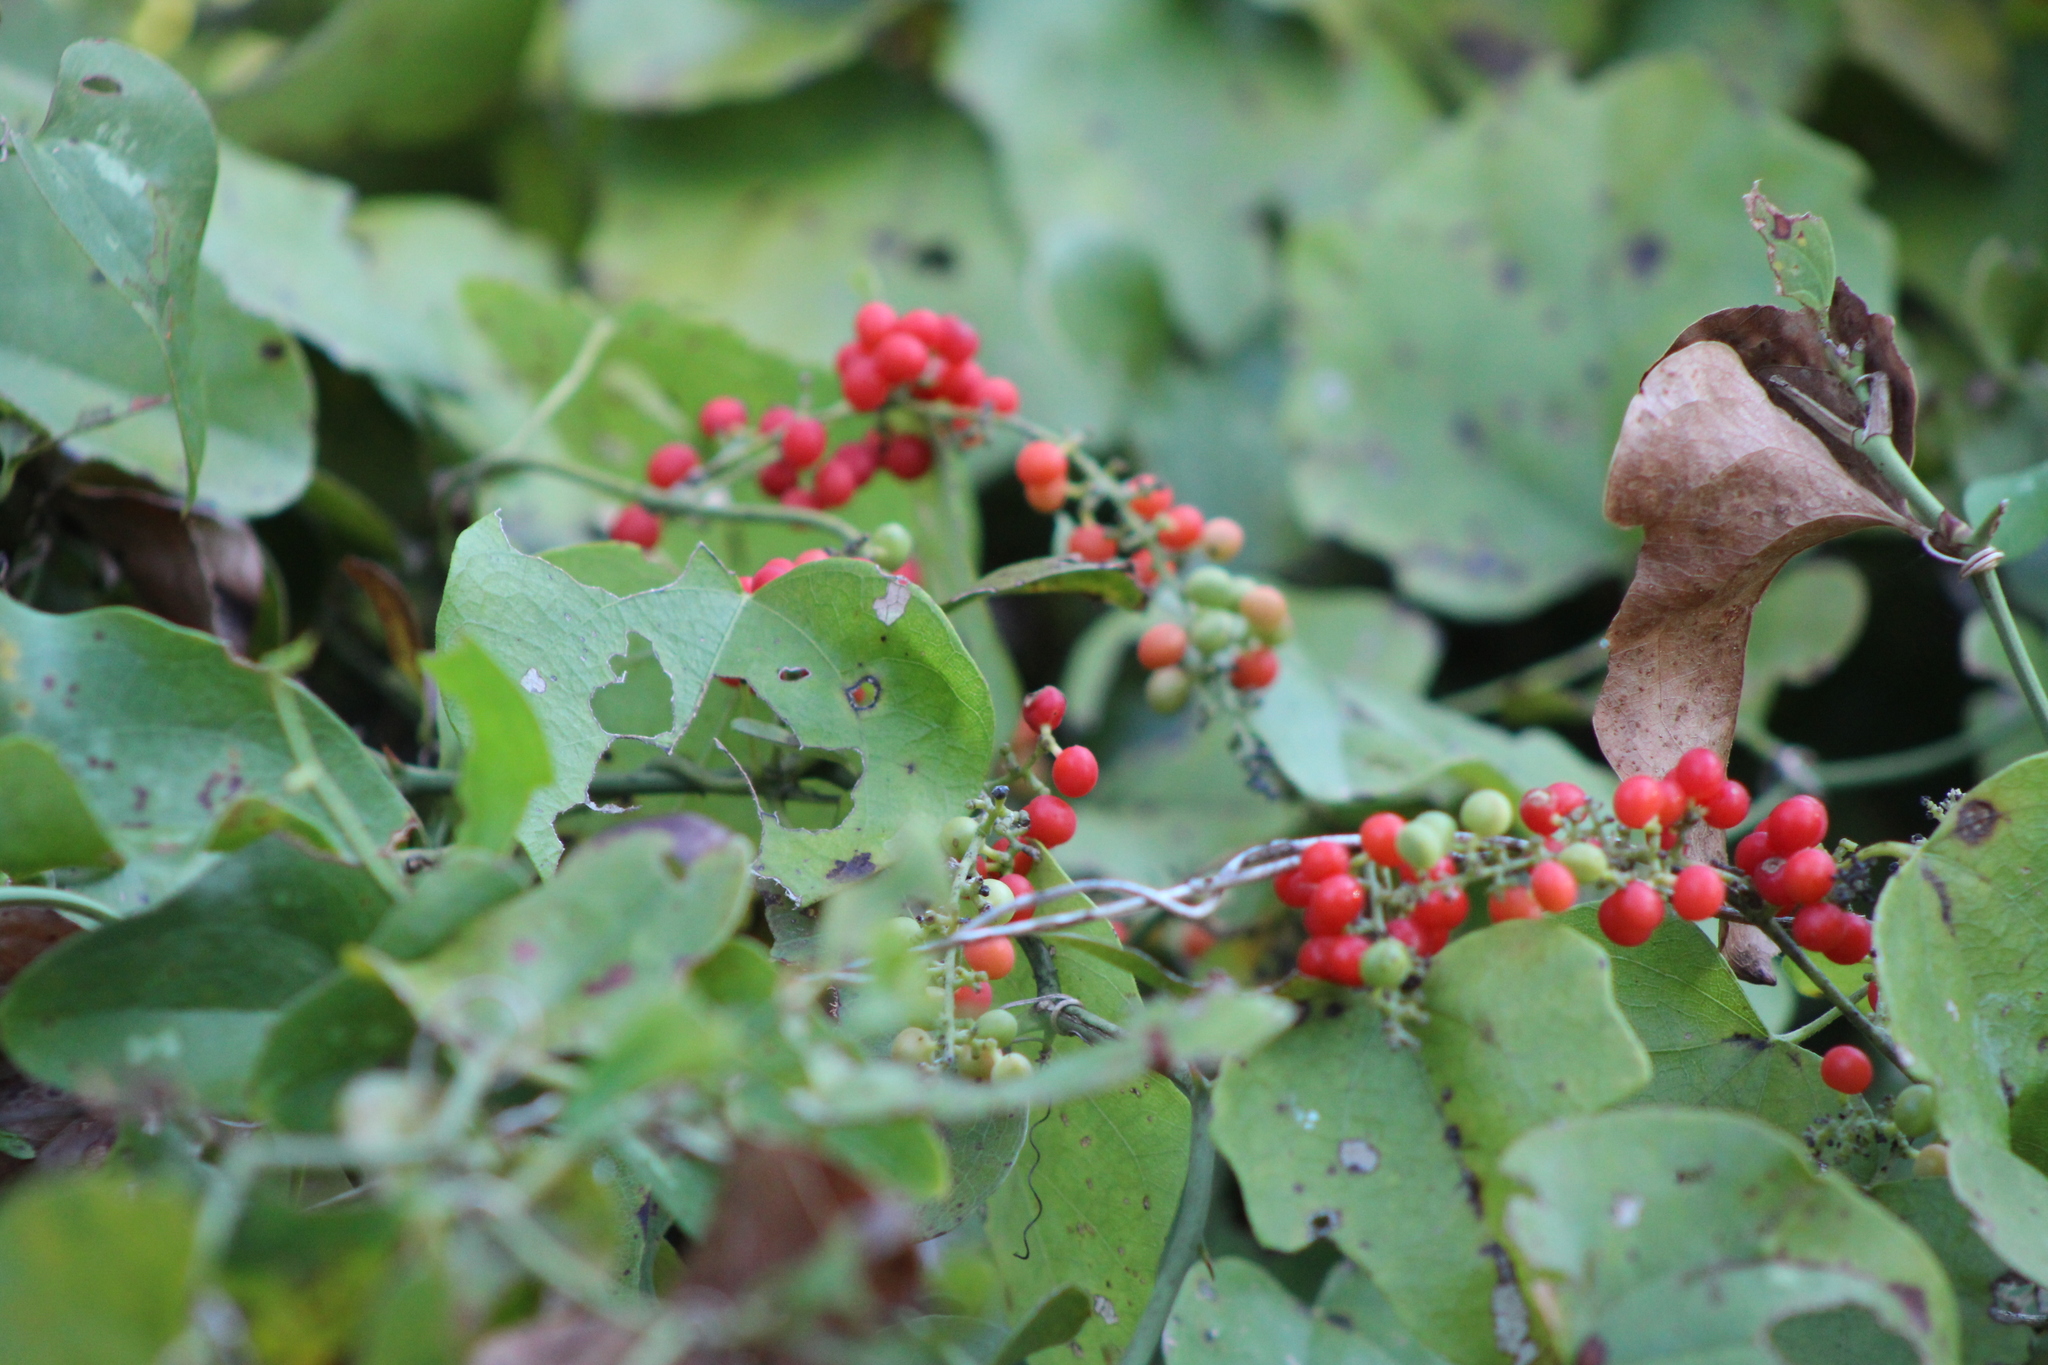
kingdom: Plantae
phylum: Tracheophyta
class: Magnoliopsida
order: Ranunculales
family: Menispermaceae
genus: Cocculus
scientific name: Cocculus carolinus
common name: Carolina moonseed
